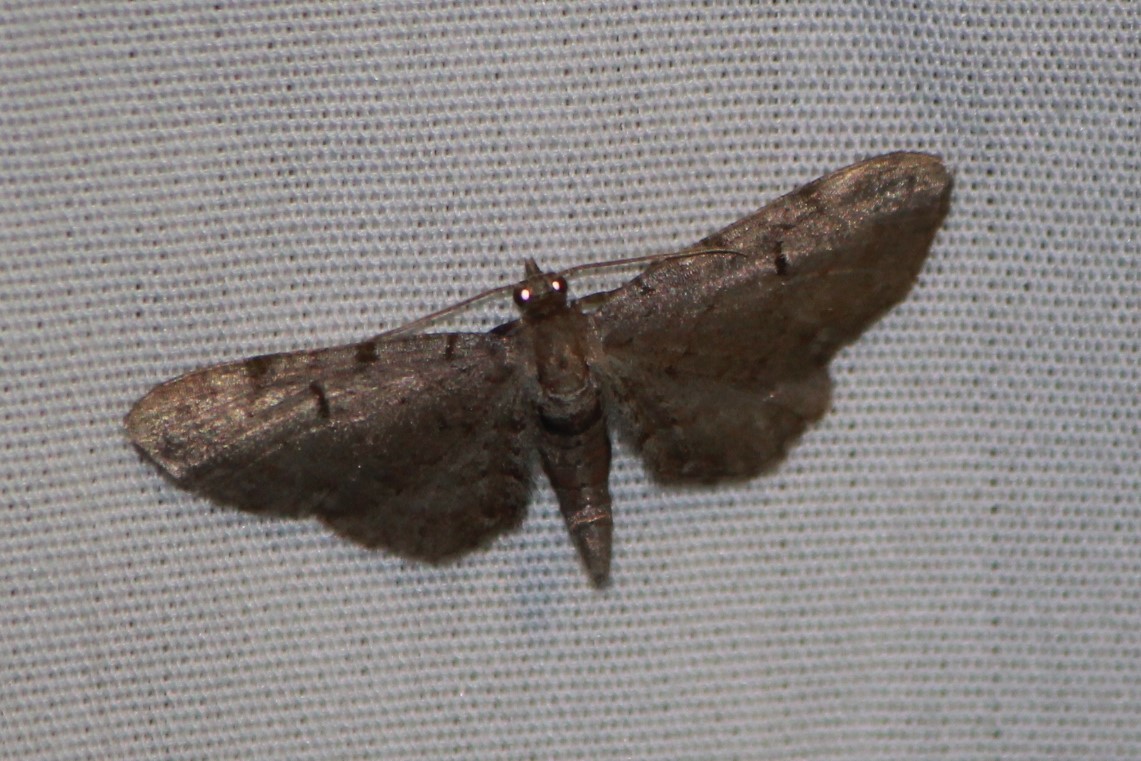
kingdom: Animalia
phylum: Arthropoda
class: Insecta
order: Lepidoptera
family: Geometridae
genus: Eupithecia
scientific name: Eupithecia absinthiata
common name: Wormwood pug
